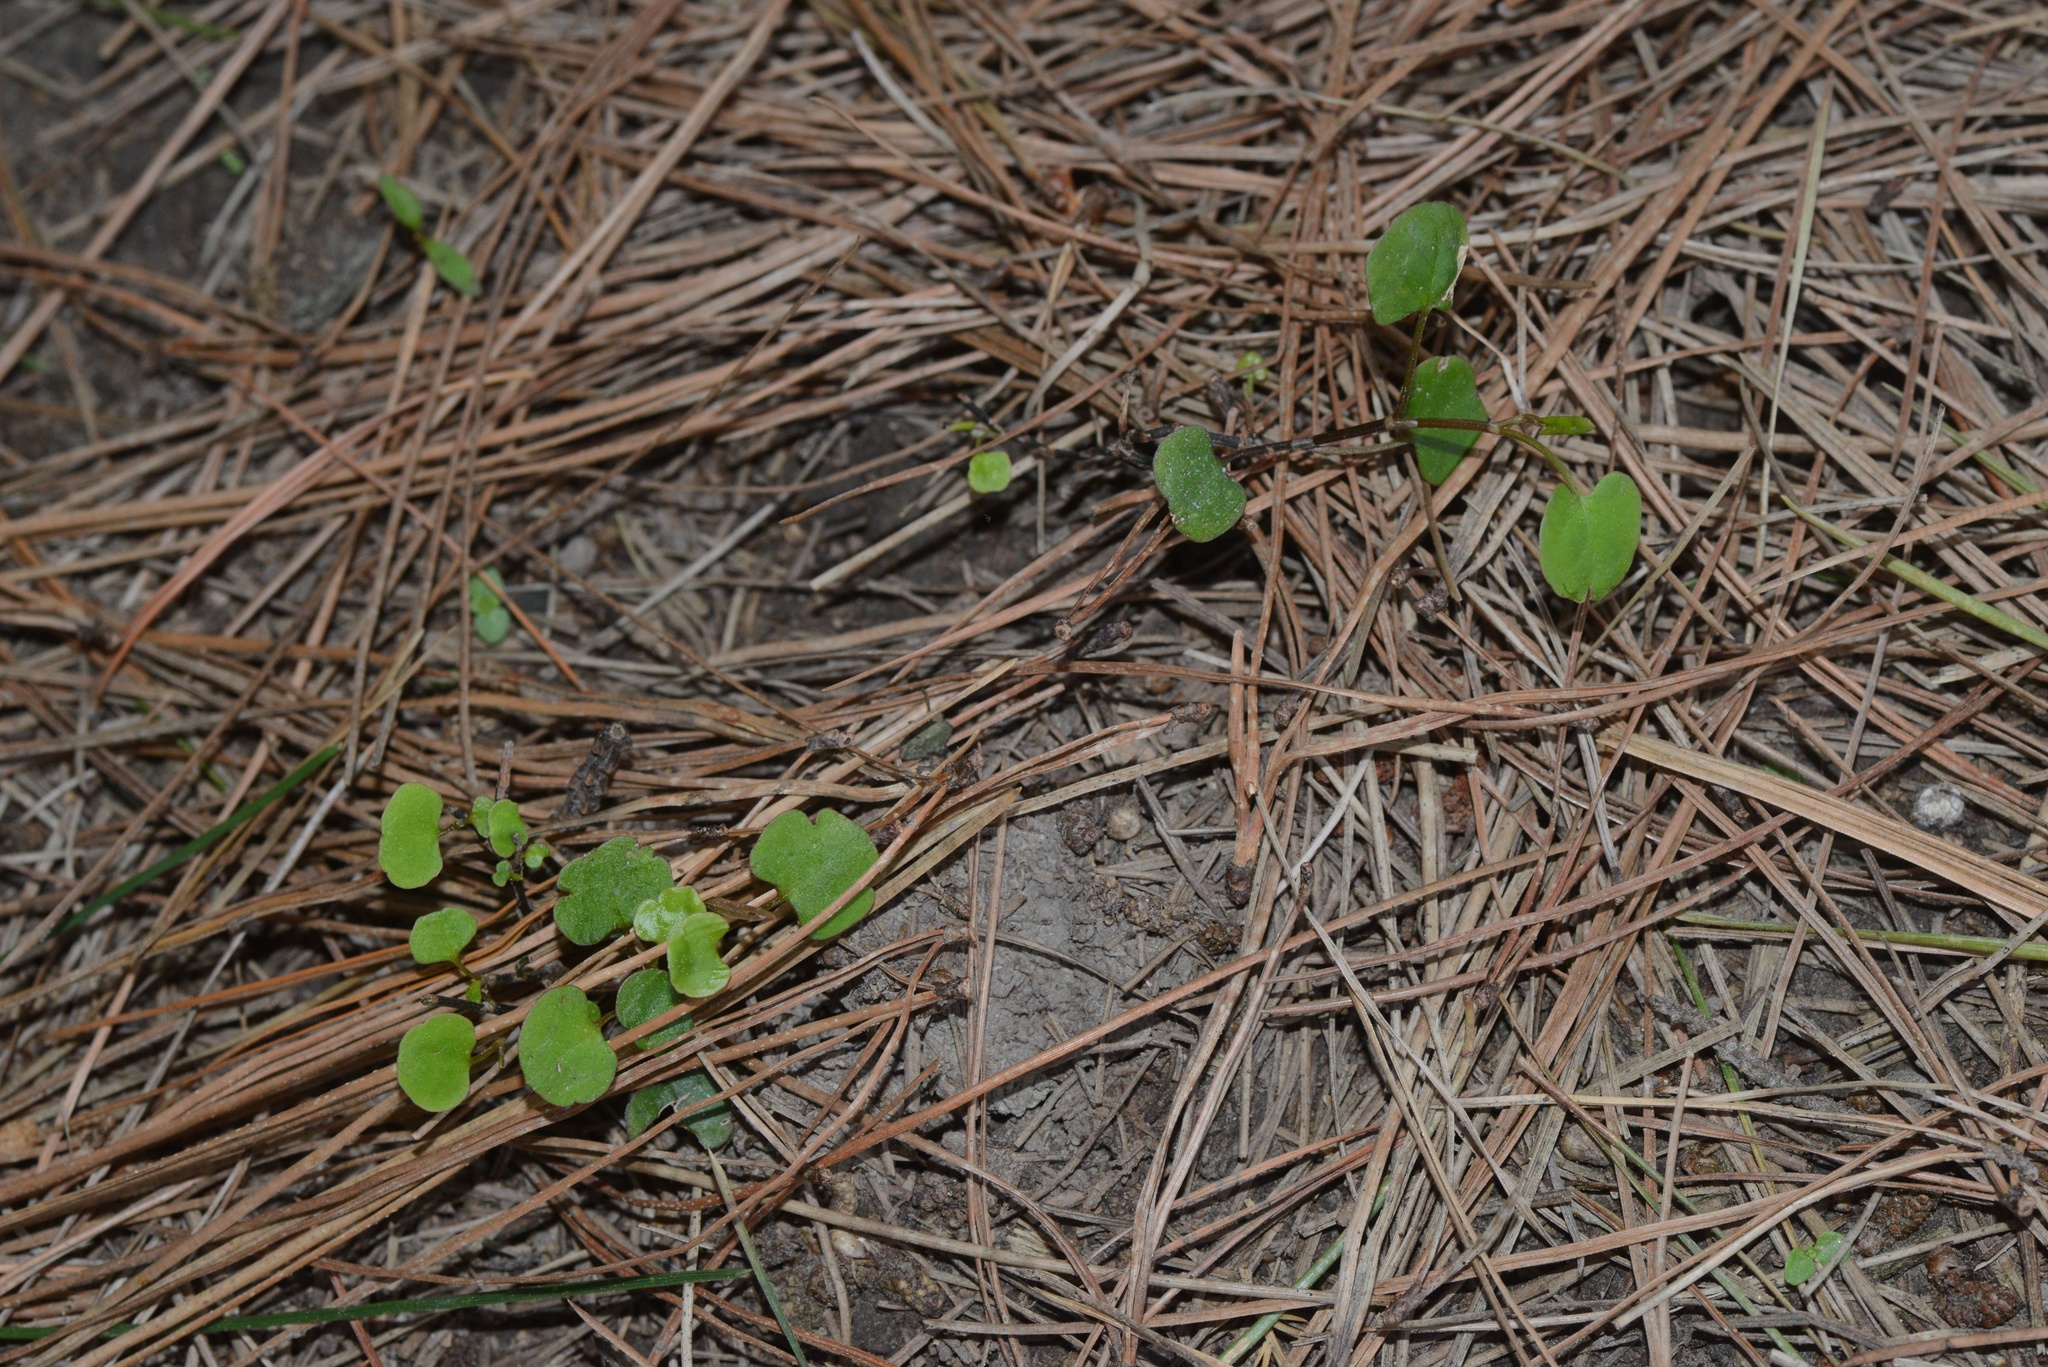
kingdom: Plantae
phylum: Tracheophyta
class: Magnoliopsida
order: Caryophyllales
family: Polygonaceae
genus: Muehlenbeckia
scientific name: Muehlenbeckia australis
